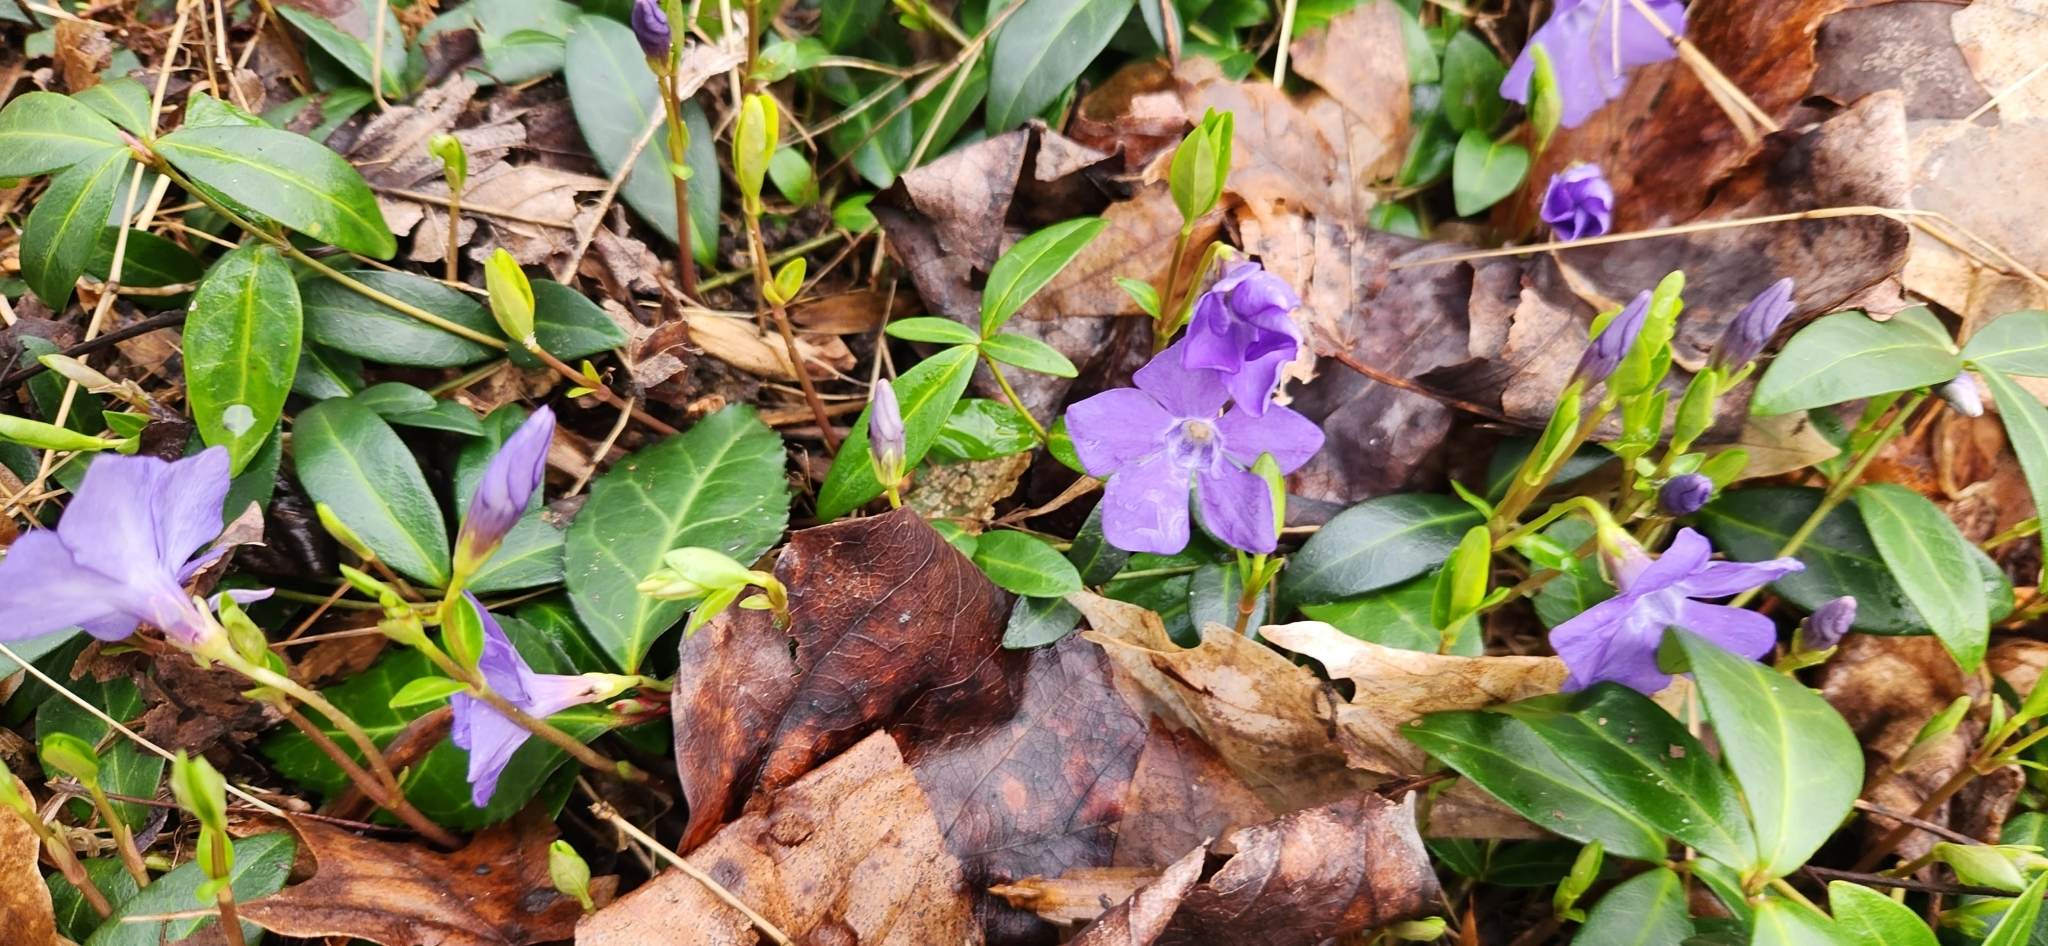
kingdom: Plantae
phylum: Tracheophyta
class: Magnoliopsida
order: Gentianales
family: Apocynaceae
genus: Vinca
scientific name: Vinca minor
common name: Lesser periwinkle
